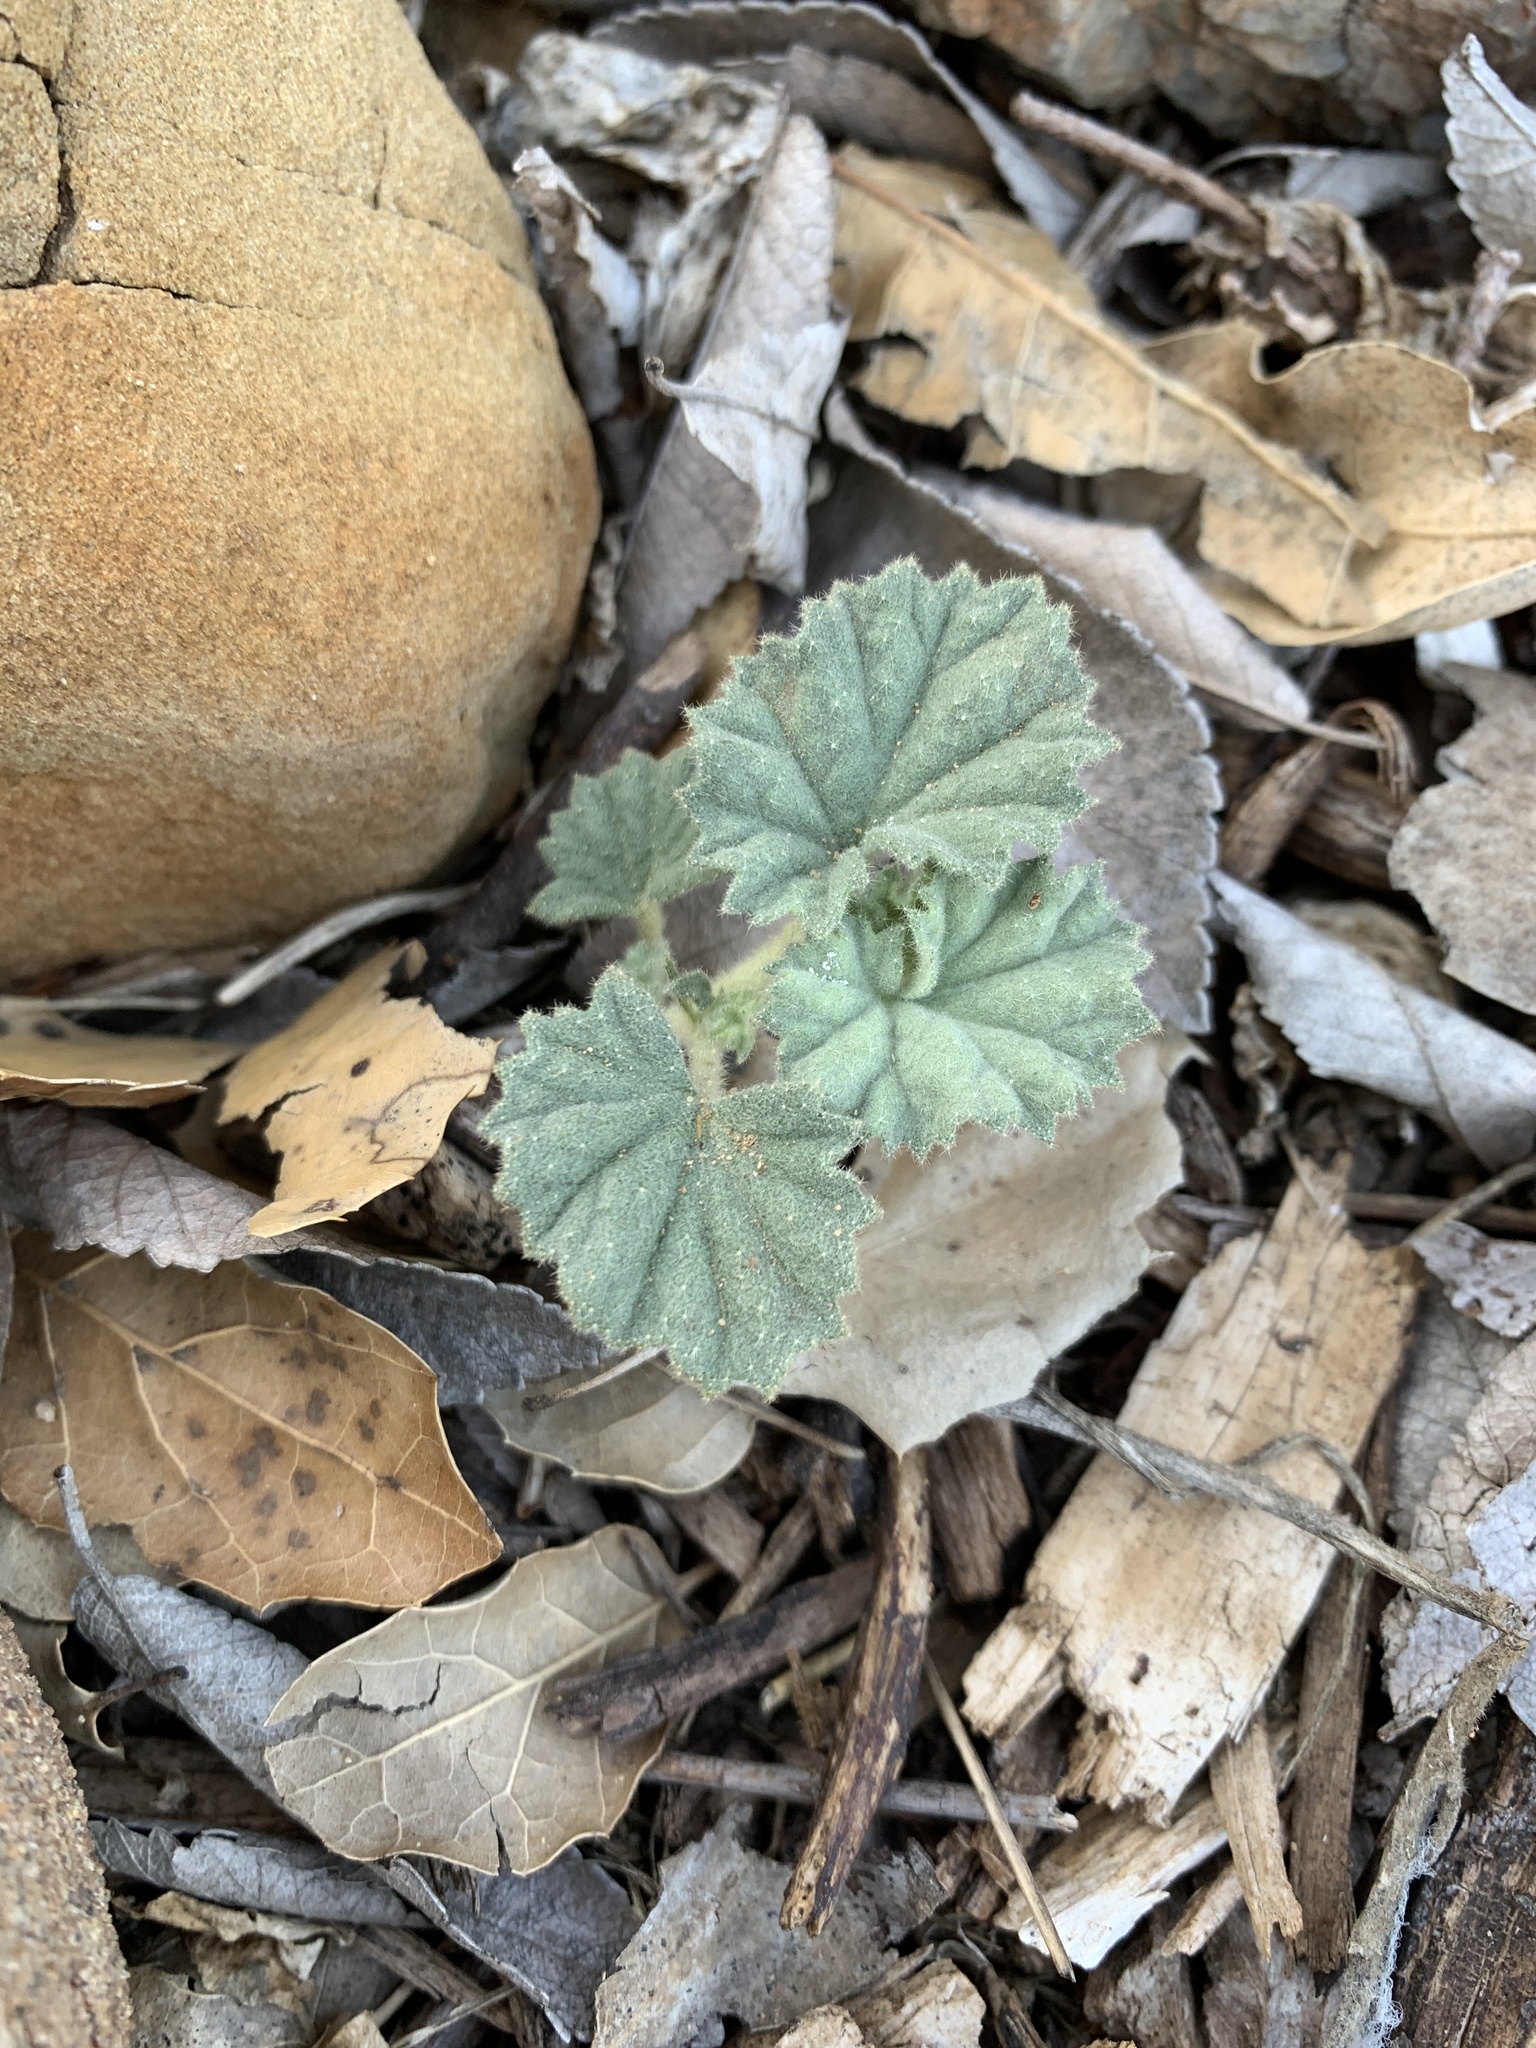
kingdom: Plantae
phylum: Tracheophyta
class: Magnoliopsida
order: Malvales
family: Malvaceae
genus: Malvella
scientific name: Malvella leprosa
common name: Alkali-mallow
